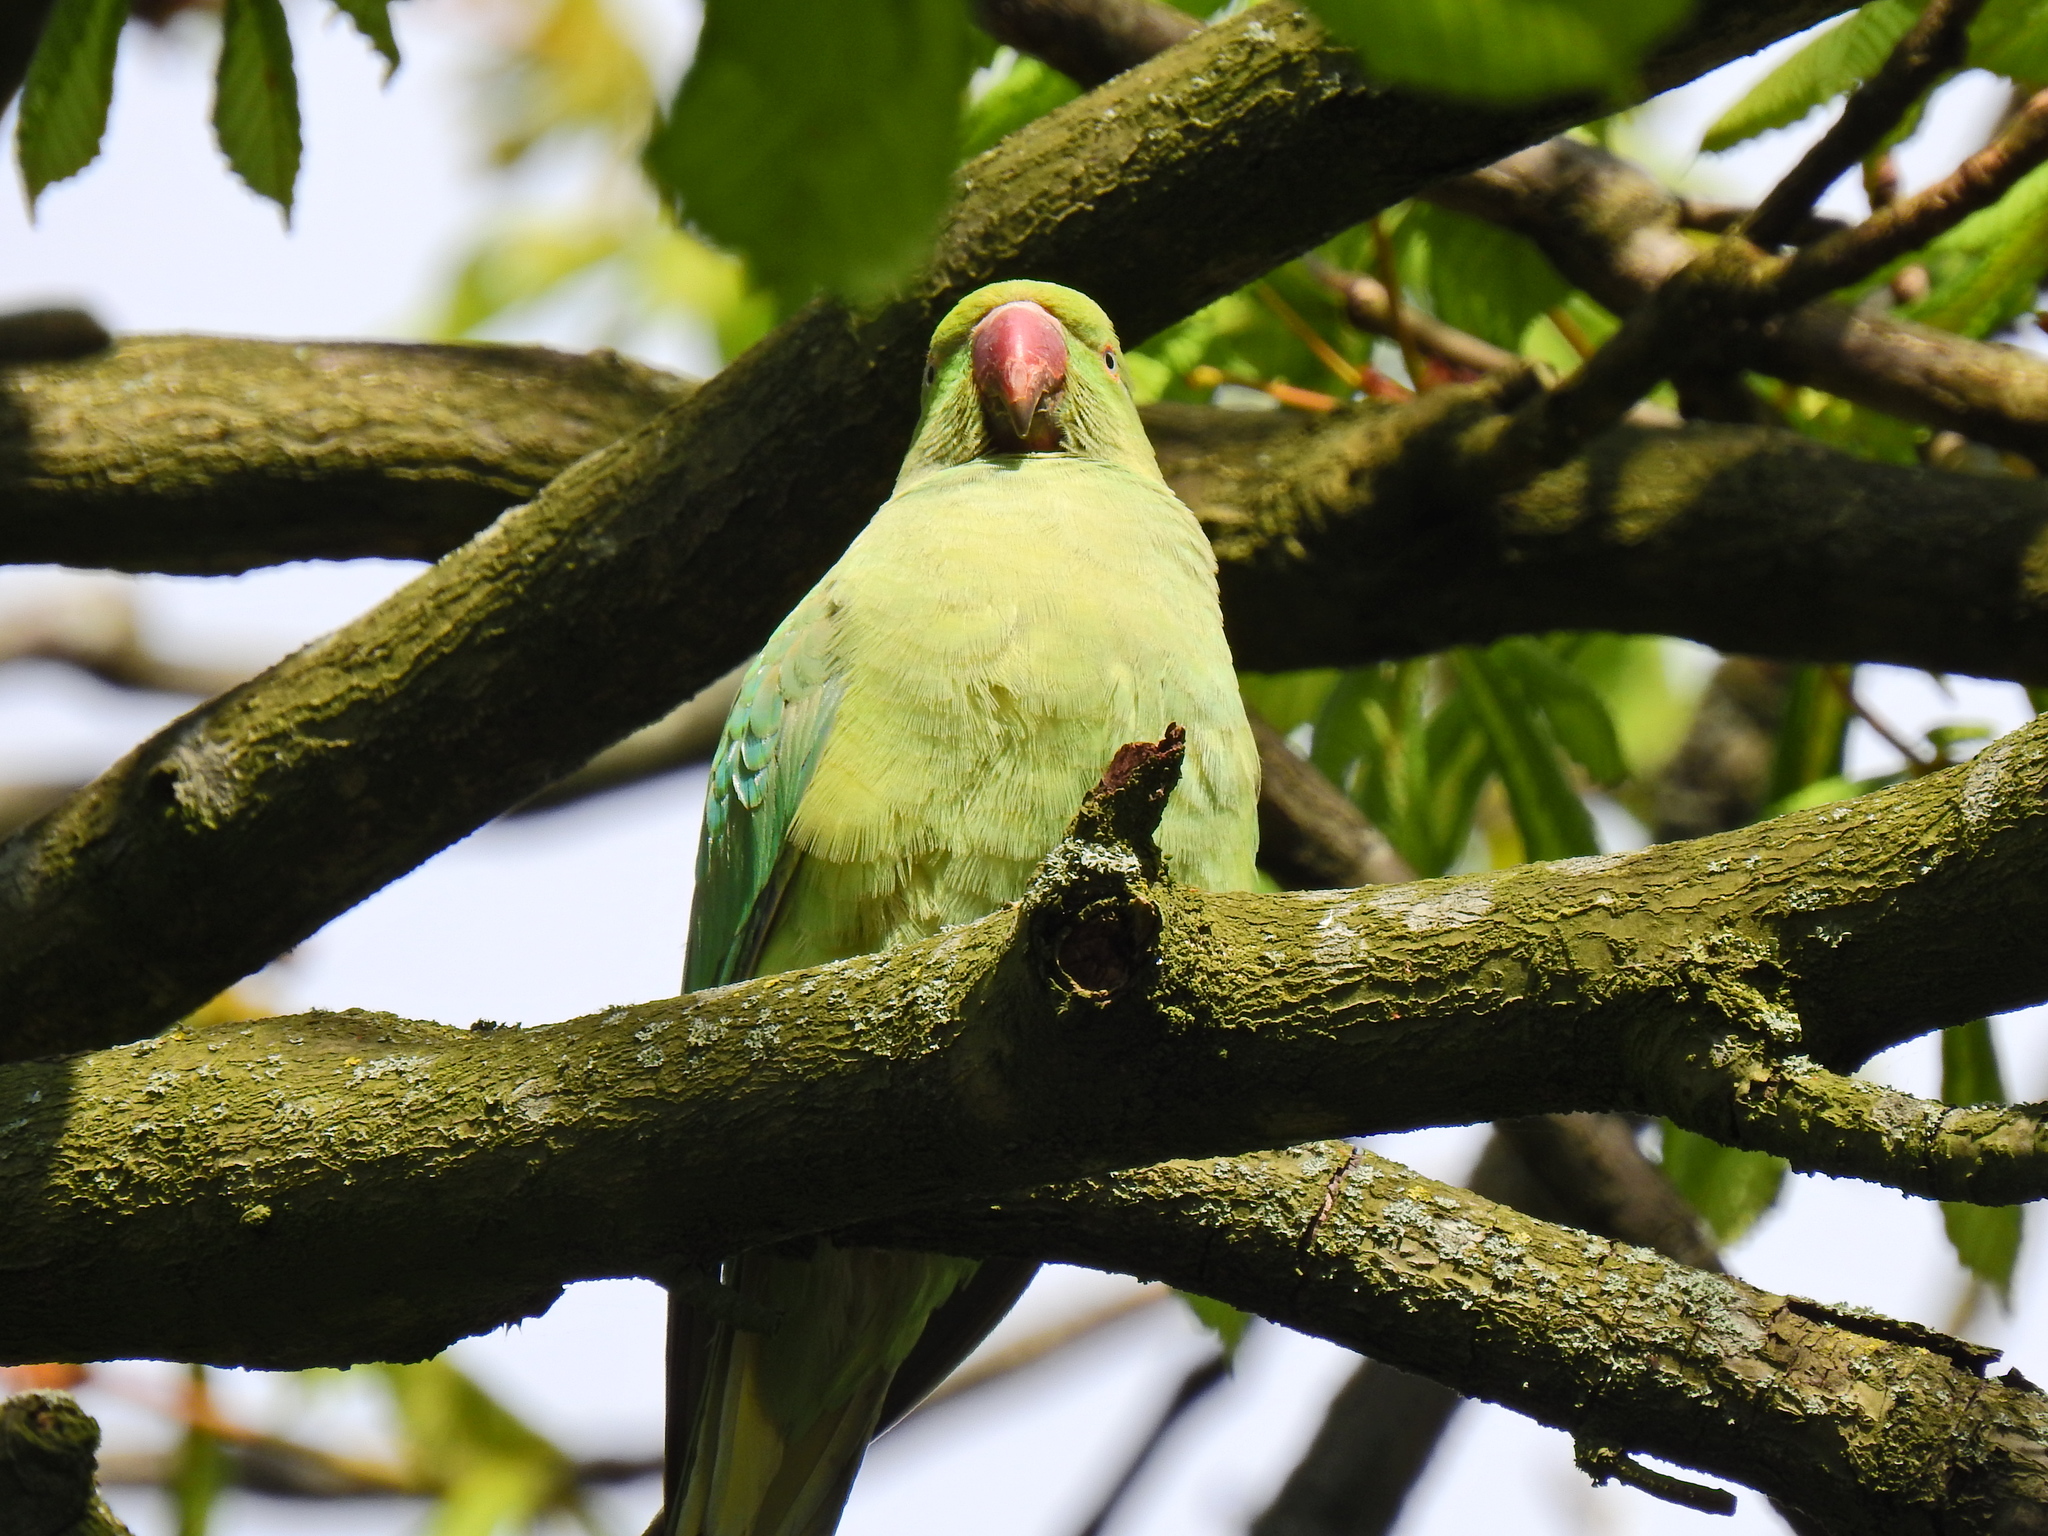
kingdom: Animalia
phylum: Chordata
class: Aves
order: Psittaciformes
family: Psittacidae
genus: Psittacula
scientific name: Psittacula krameri
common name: Rose-ringed parakeet
